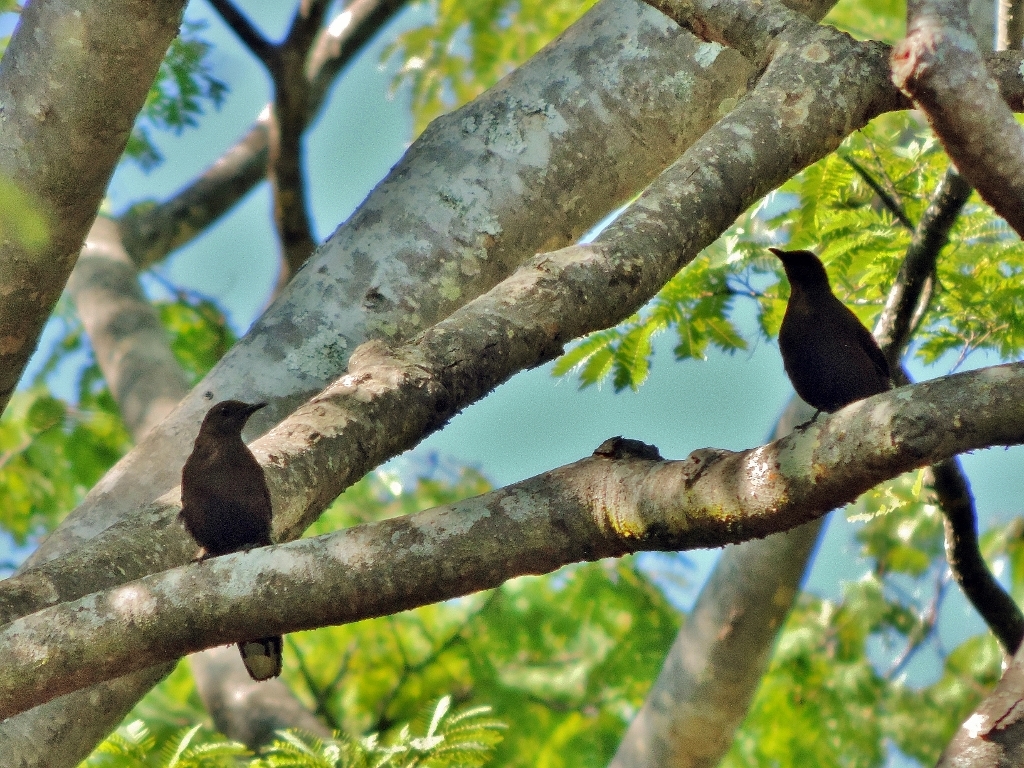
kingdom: Animalia
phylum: Chordata
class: Aves
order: Passeriformes
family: Muscicapidae
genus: Pinarornis
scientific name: Pinarornis plumosus
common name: Boulder chat
